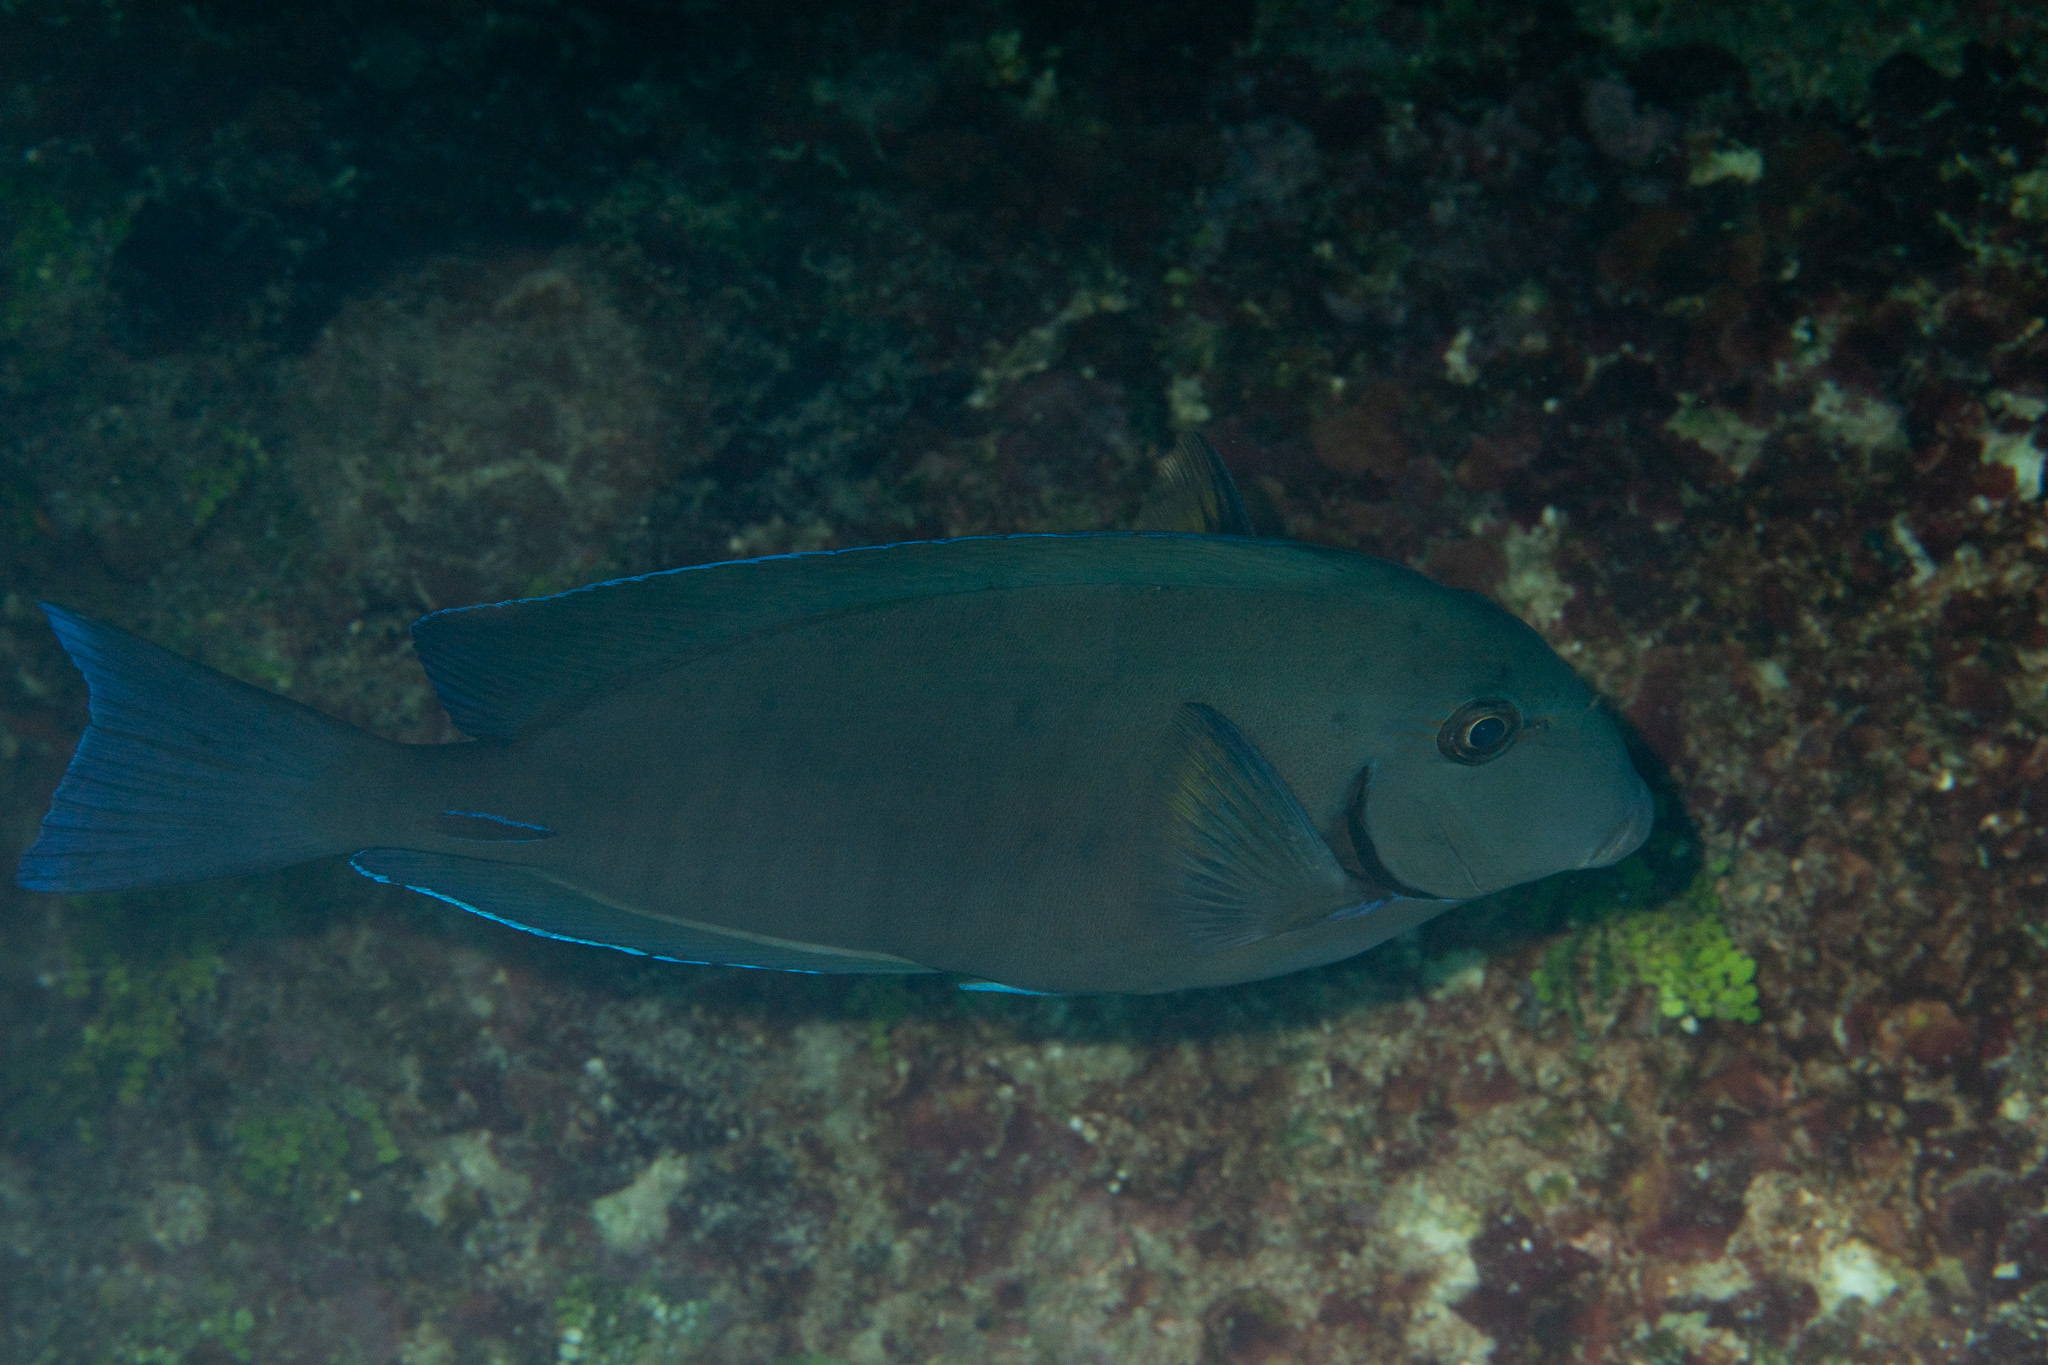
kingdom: Animalia
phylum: Chordata
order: Perciformes
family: Acanthuridae
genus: Acanthurus
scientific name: Acanthurus chirurgus
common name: Doctorfish
